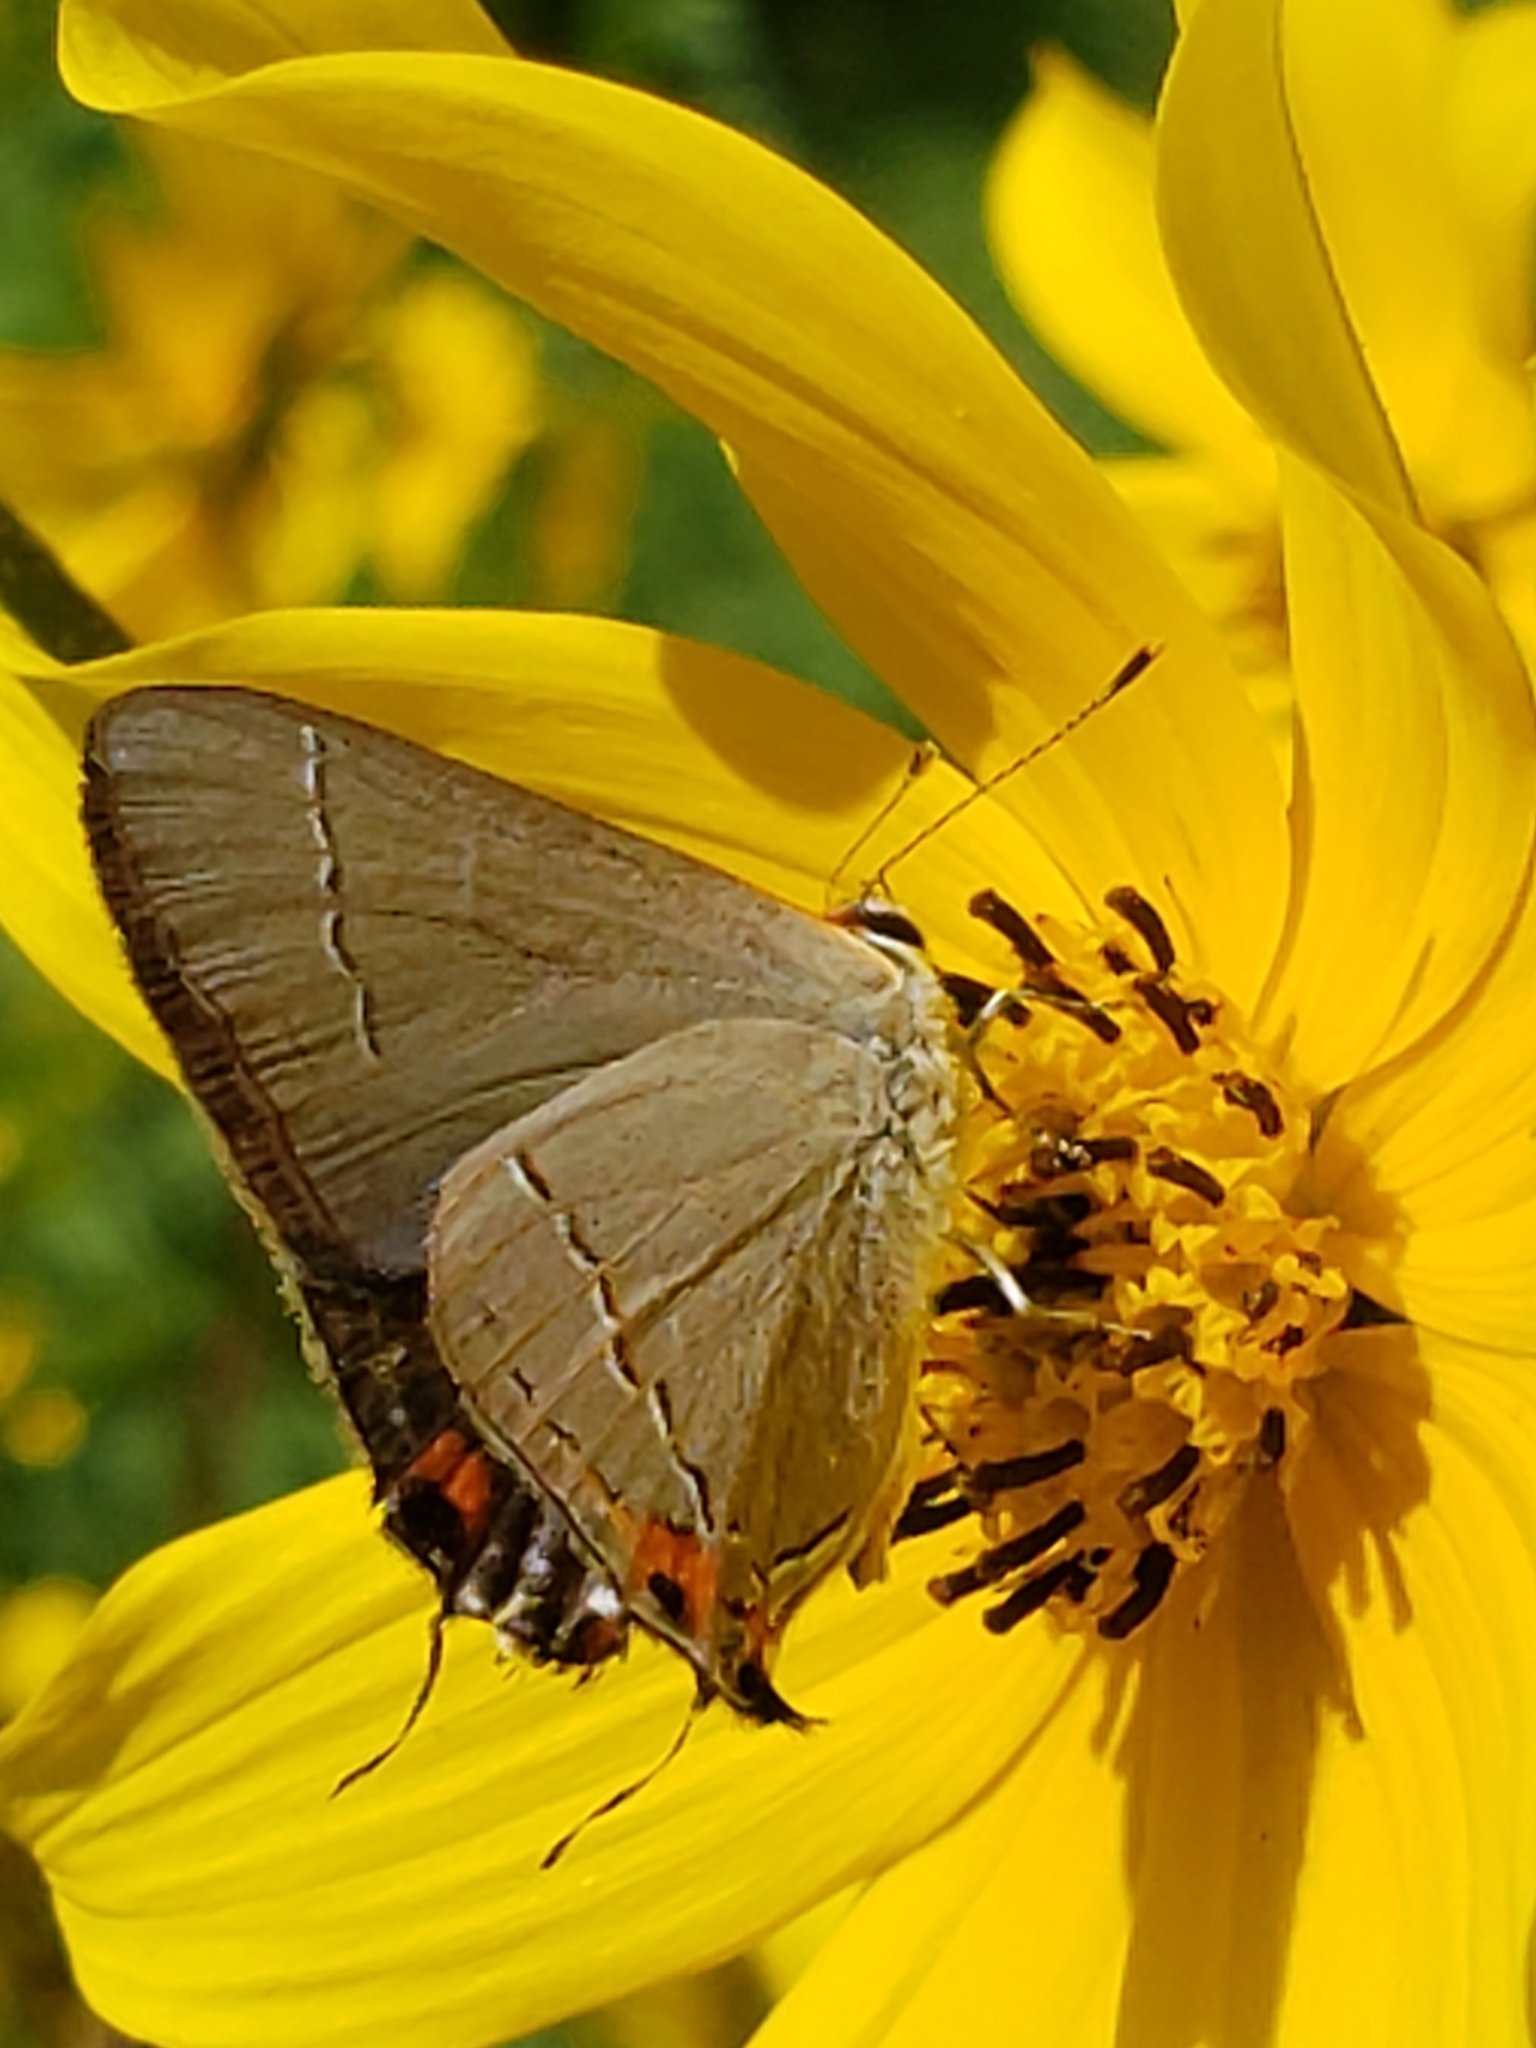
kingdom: Animalia
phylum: Arthropoda
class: Insecta
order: Lepidoptera
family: Lycaenidae
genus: Strymon
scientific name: Strymon melinus
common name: Gray hairstreak
